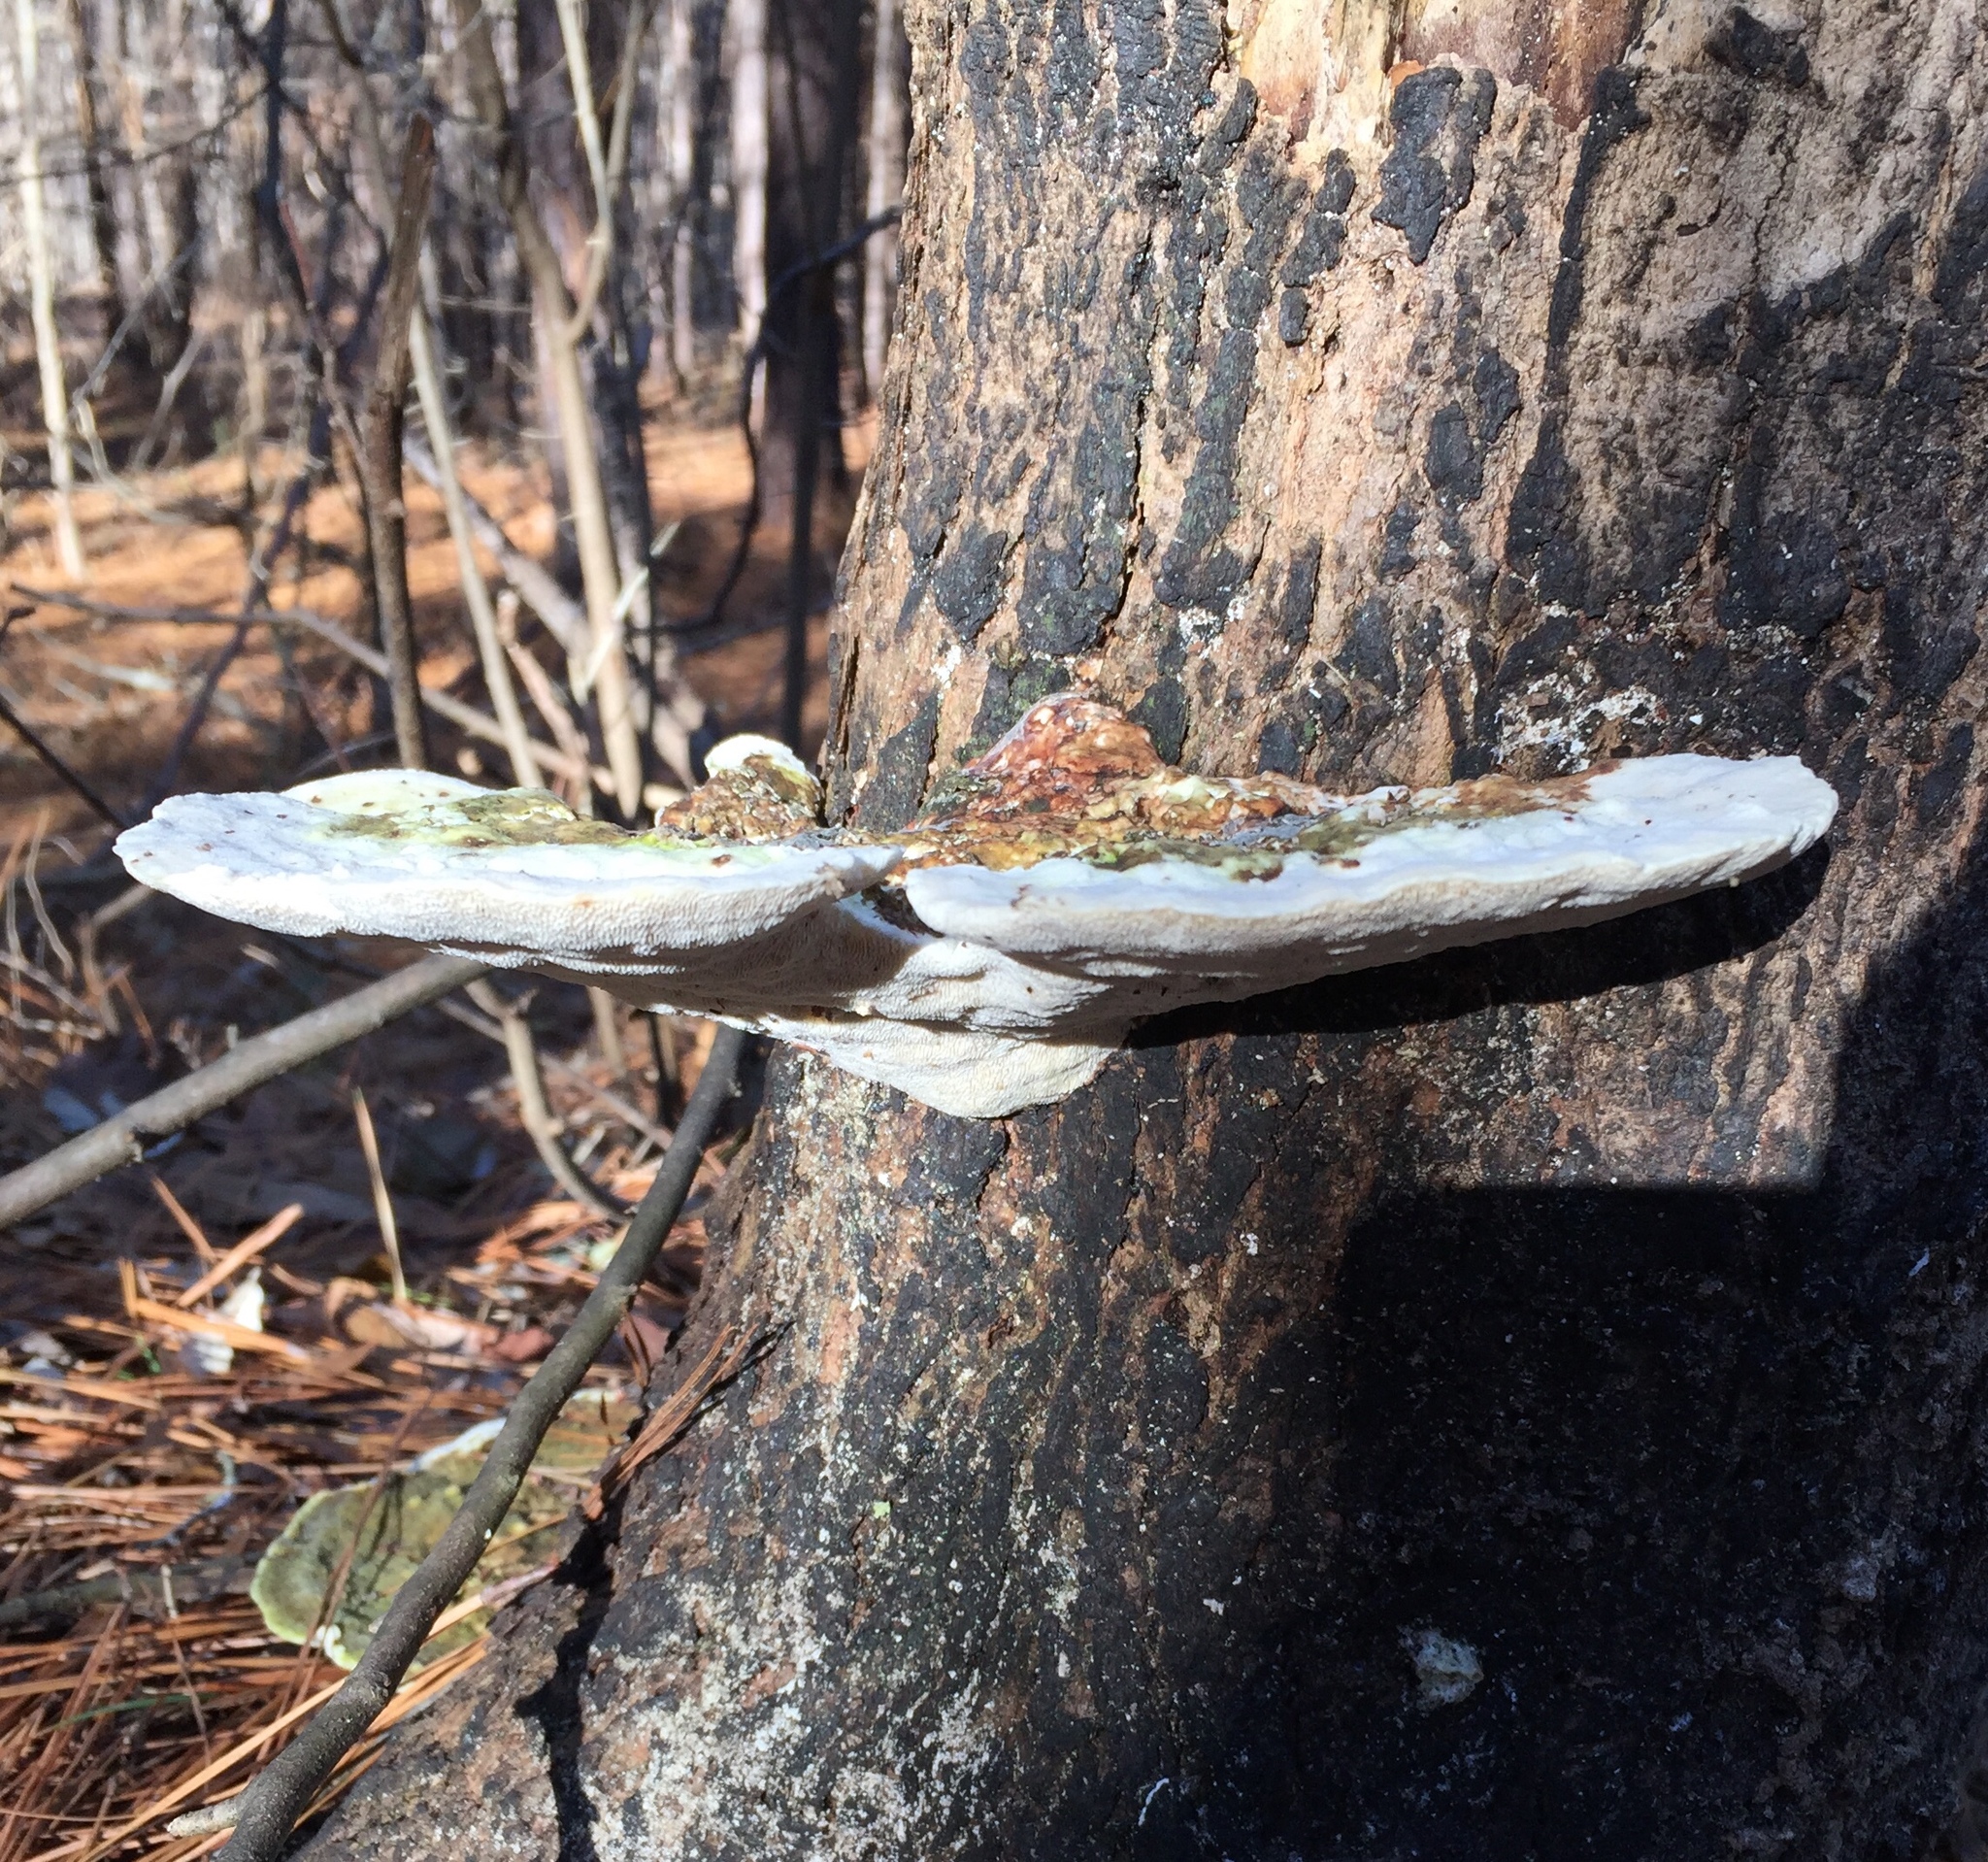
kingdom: Fungi
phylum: Basidiomycota
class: Agaricomycetes
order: Polyporales
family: Polyporaceae
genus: Trametes
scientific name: Trametes gibbosa
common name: Lumpy bracket
